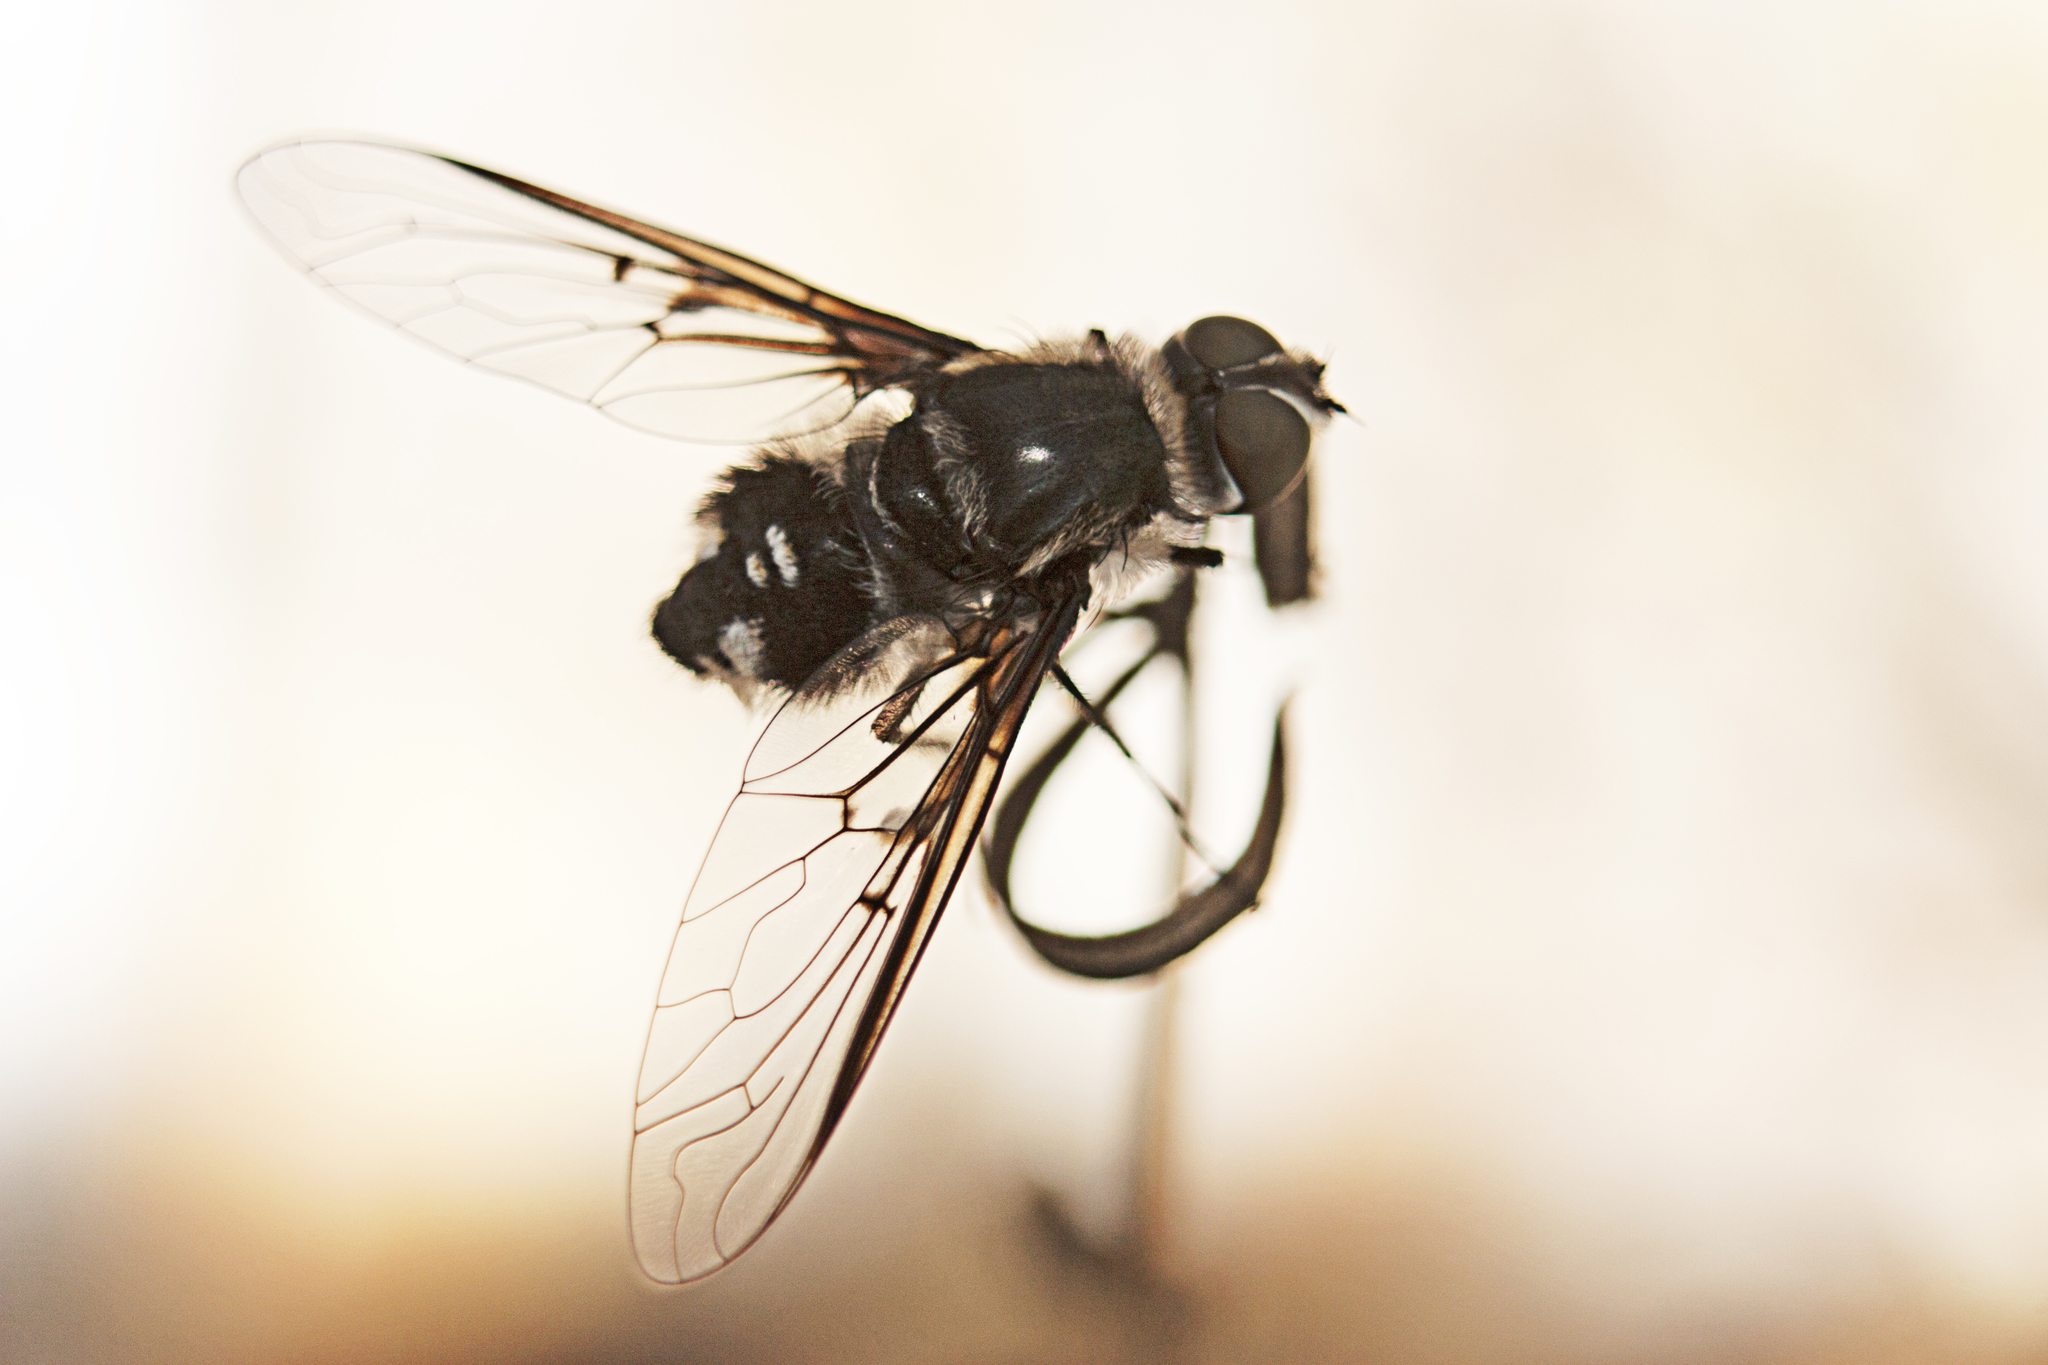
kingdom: Animalia
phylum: Arthropoda
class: Insecta
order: Diptera
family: Bombyliidae
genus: Thraxan
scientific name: Thraxan
